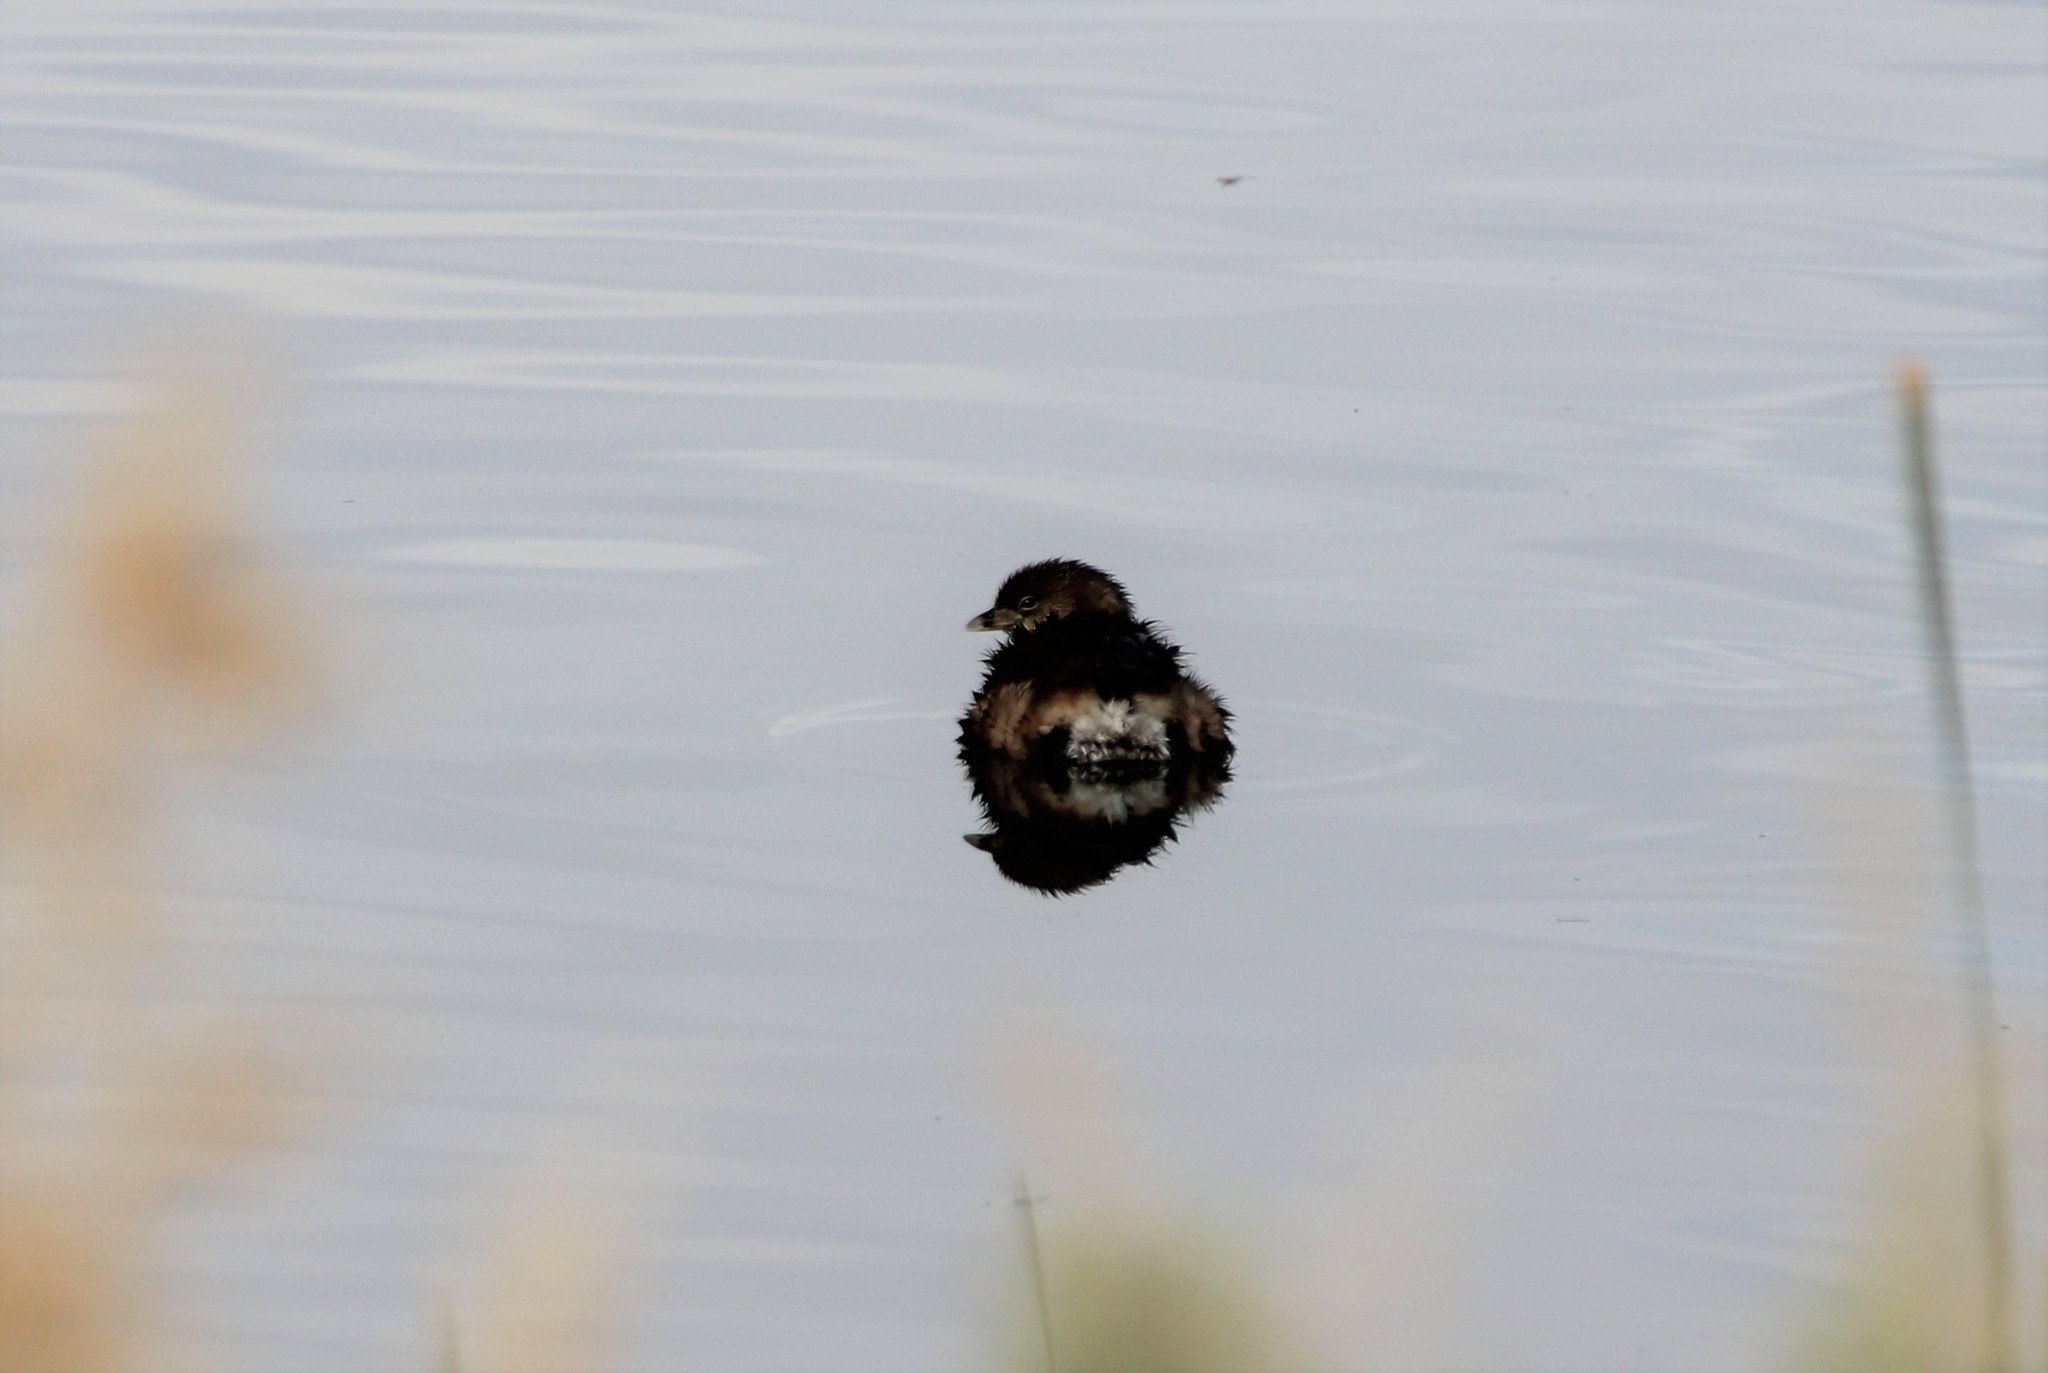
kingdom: Animalia
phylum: Chordata
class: Aves
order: Podicipediformes
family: Podicipedidae
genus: Podilymbus
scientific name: Podilymbus podiceps
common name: Pied-billed grebe
